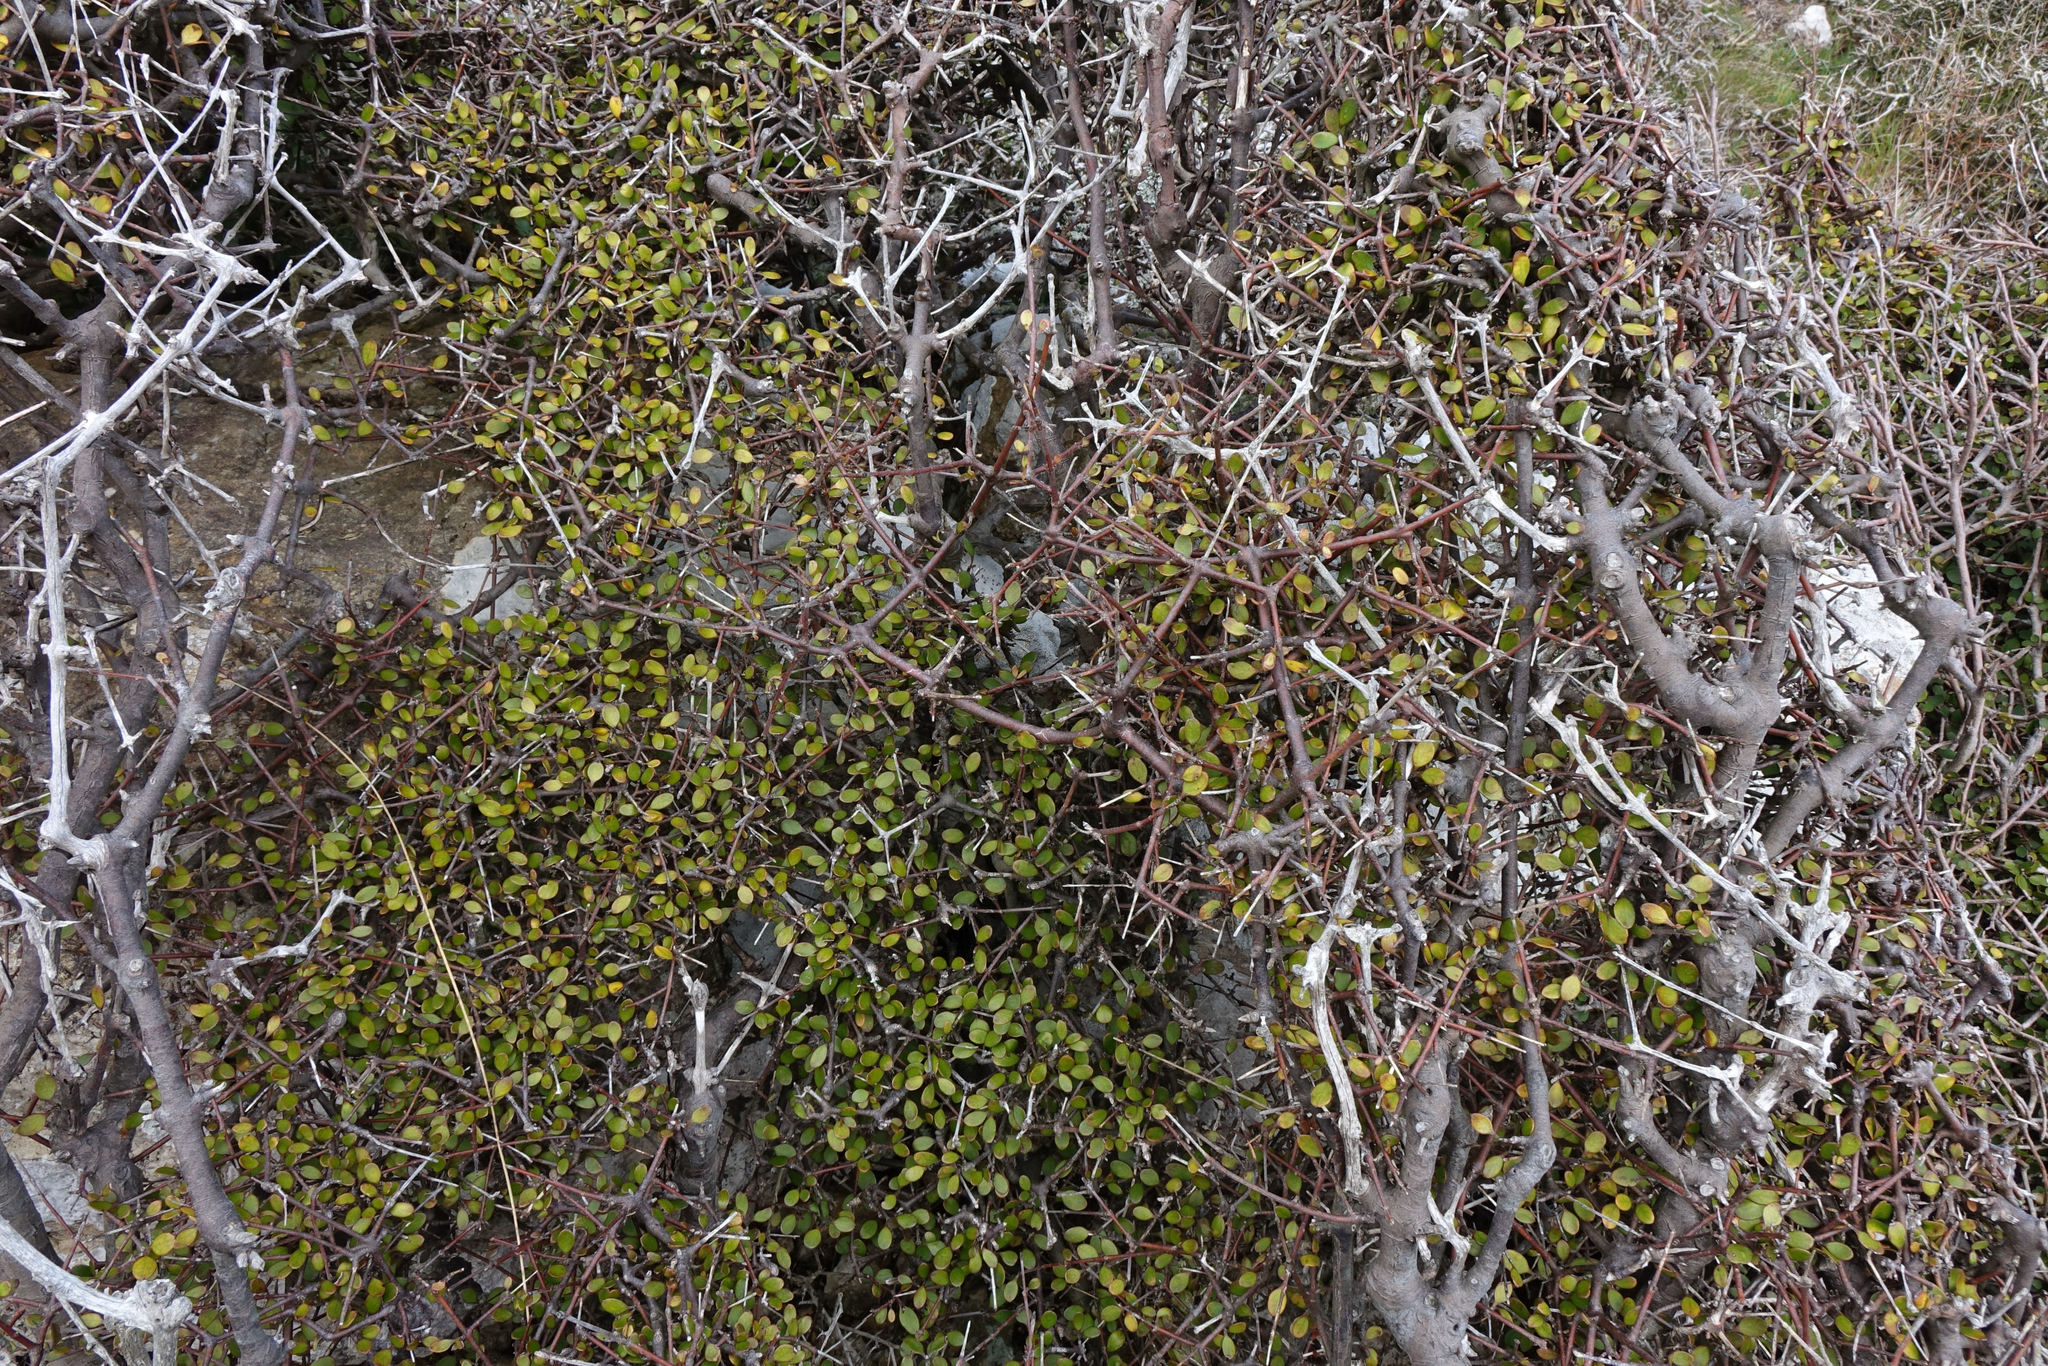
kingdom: Plantae
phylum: Tracheophyta
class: Magnoliopsida
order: Gentianales
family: Rubiaceae
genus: Coprosma
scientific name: Coprosma crassifolia
